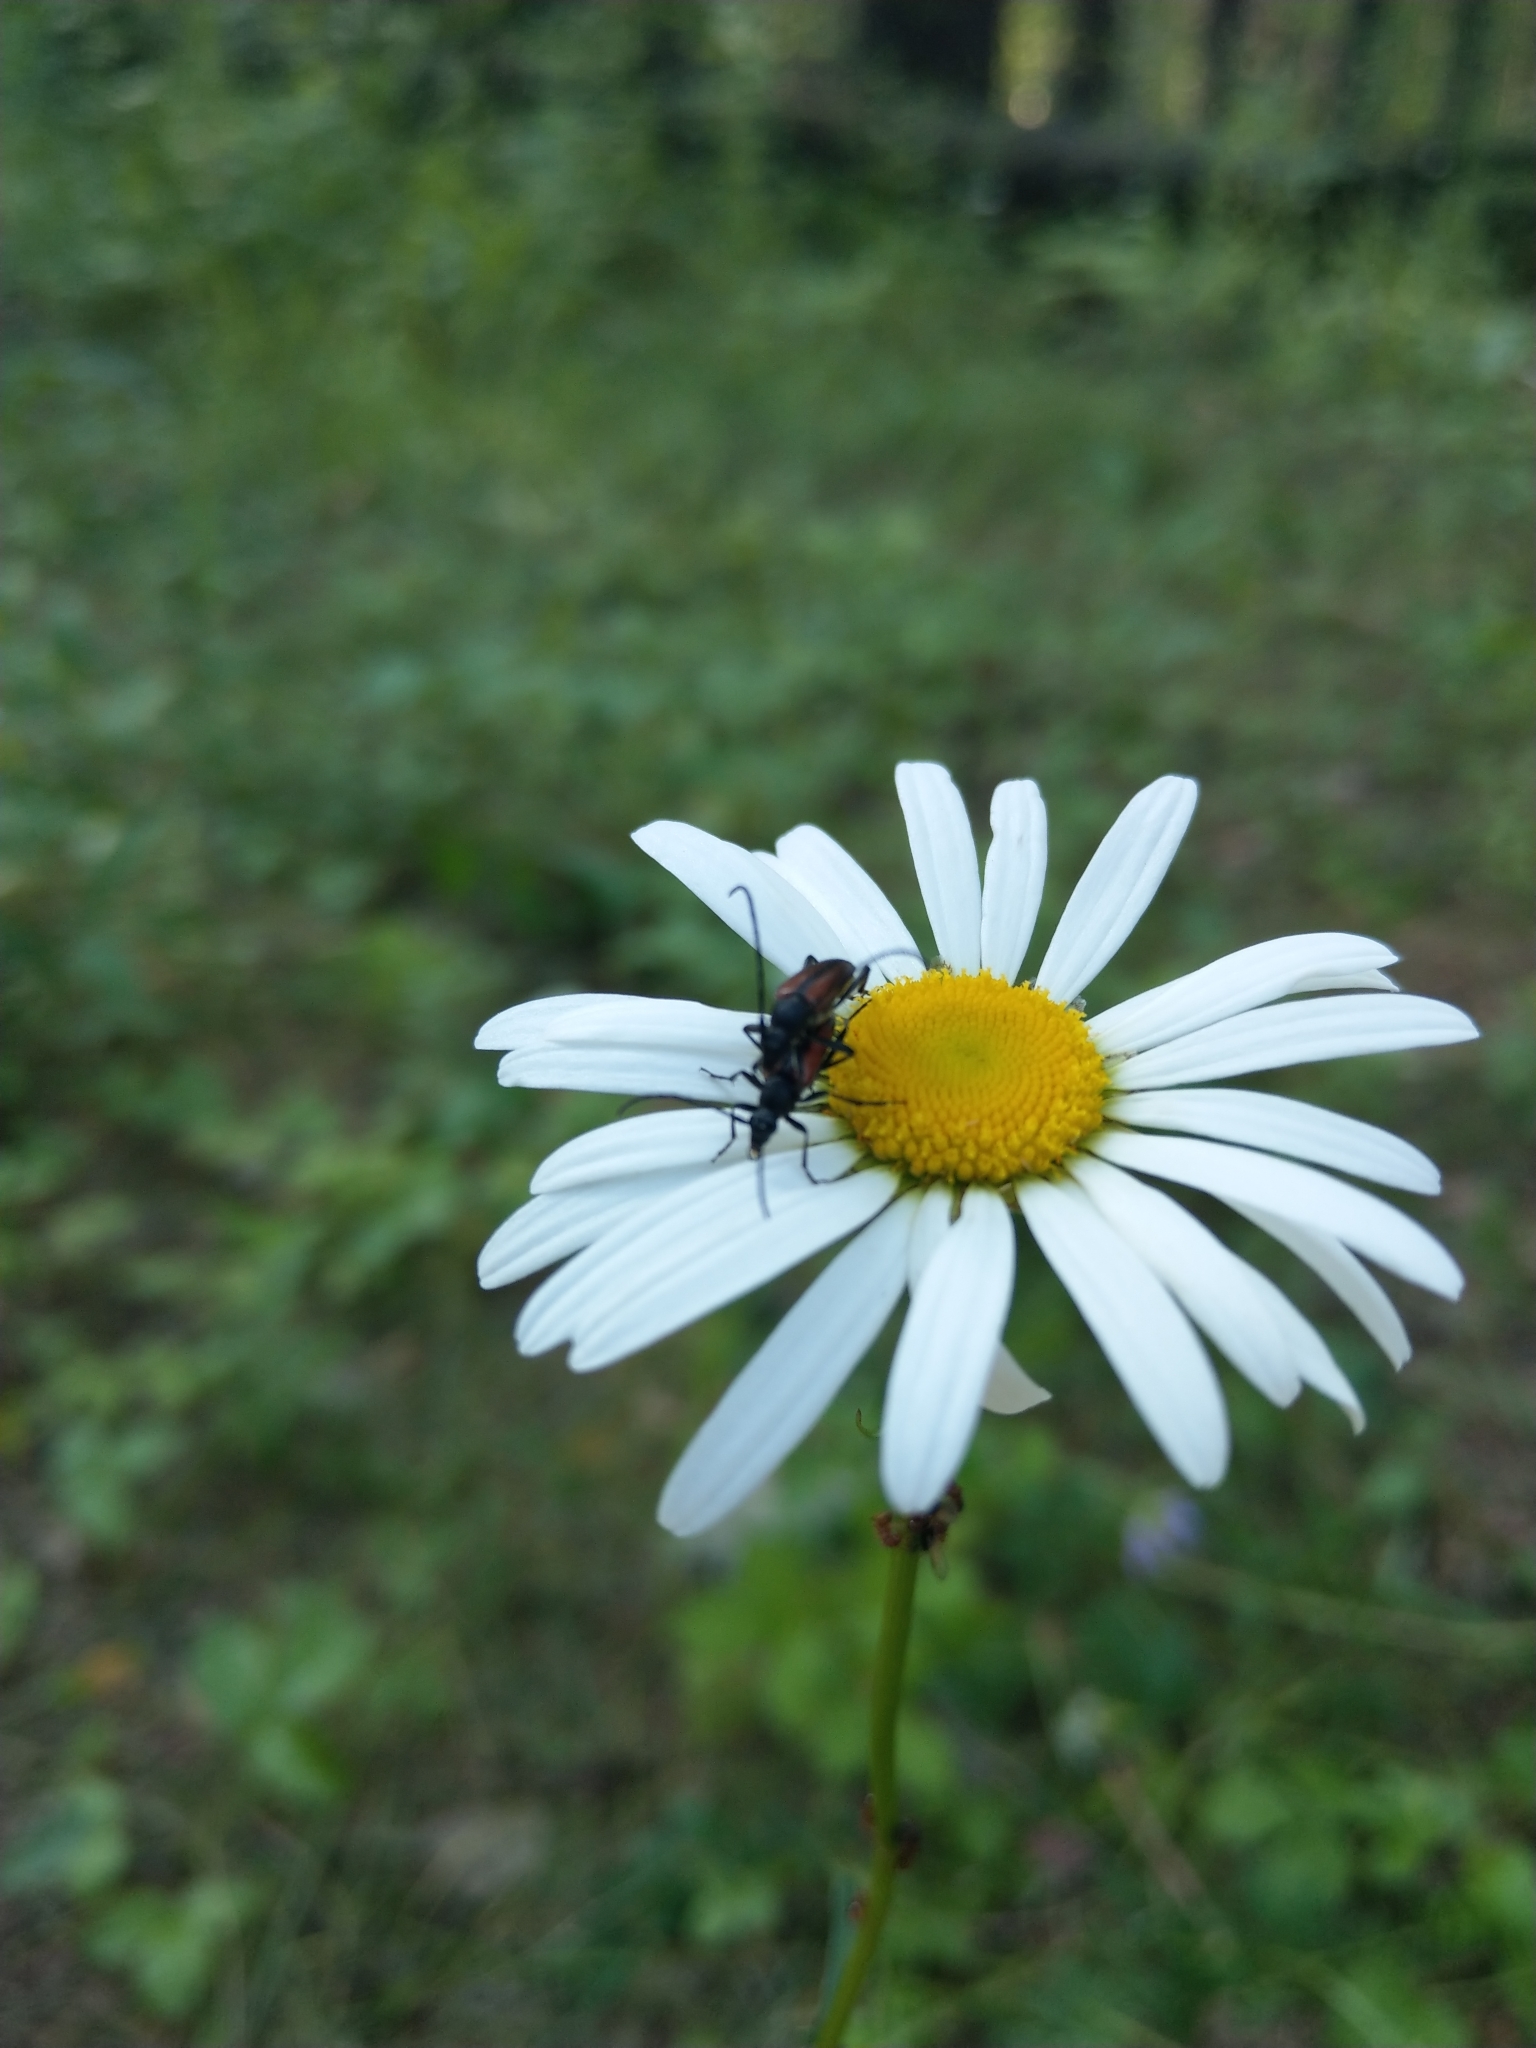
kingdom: Animalia
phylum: Arthropoda
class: Insecta
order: Coleoptera
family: Cerambycidae
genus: Stenurella
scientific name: Stenurella melanura
